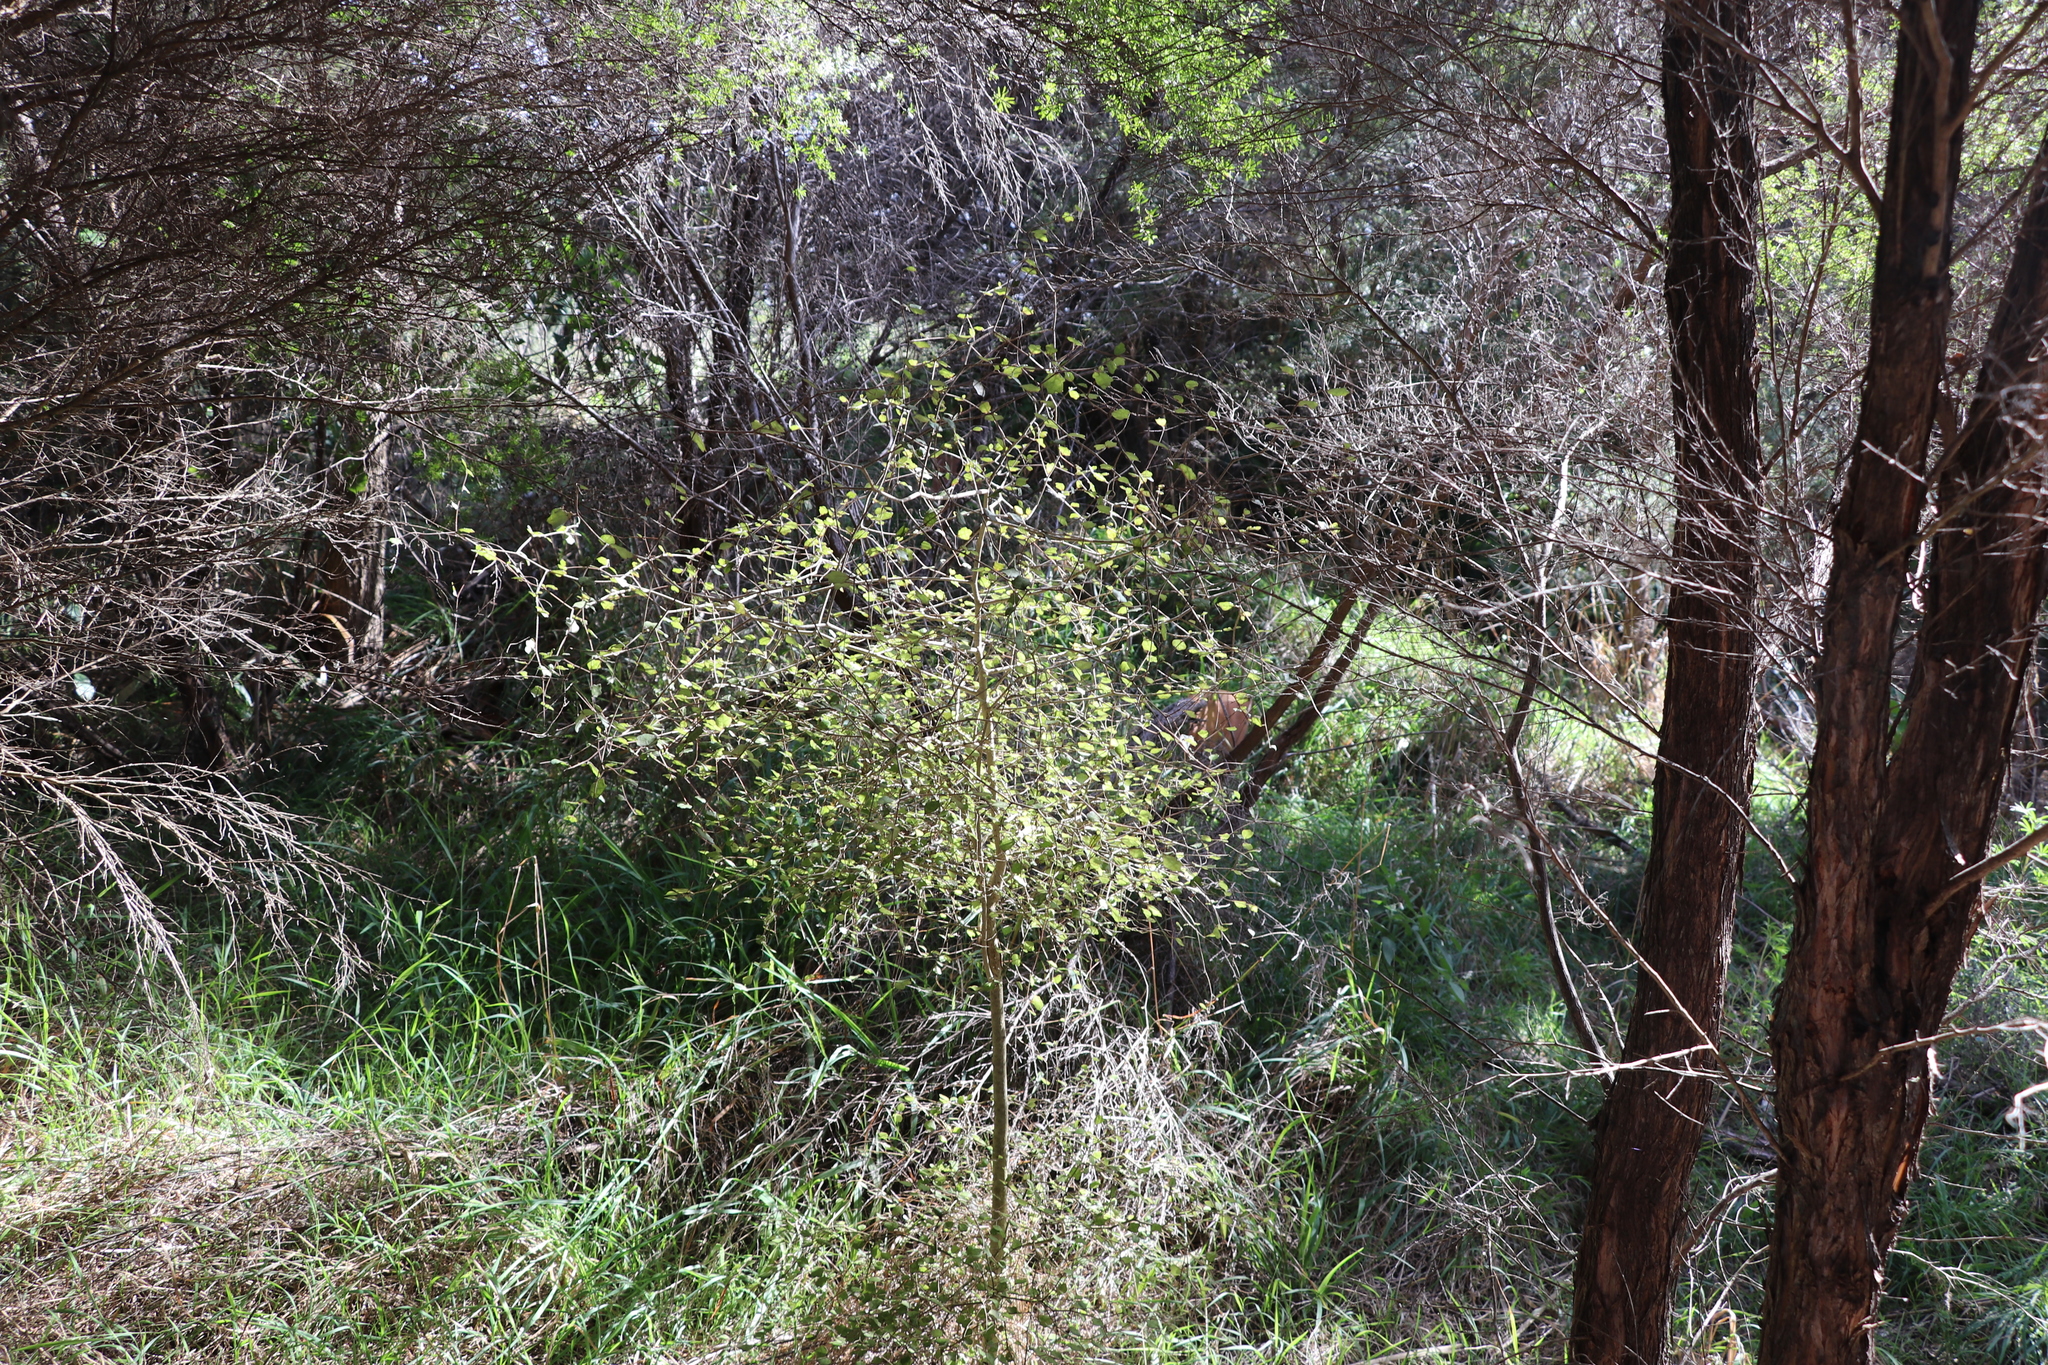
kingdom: Plantae
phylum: Tracheophyta
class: Magnoliopsida
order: Apiales
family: Pennantiaceae
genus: Pennantia
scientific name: Pennantia corymbosa
